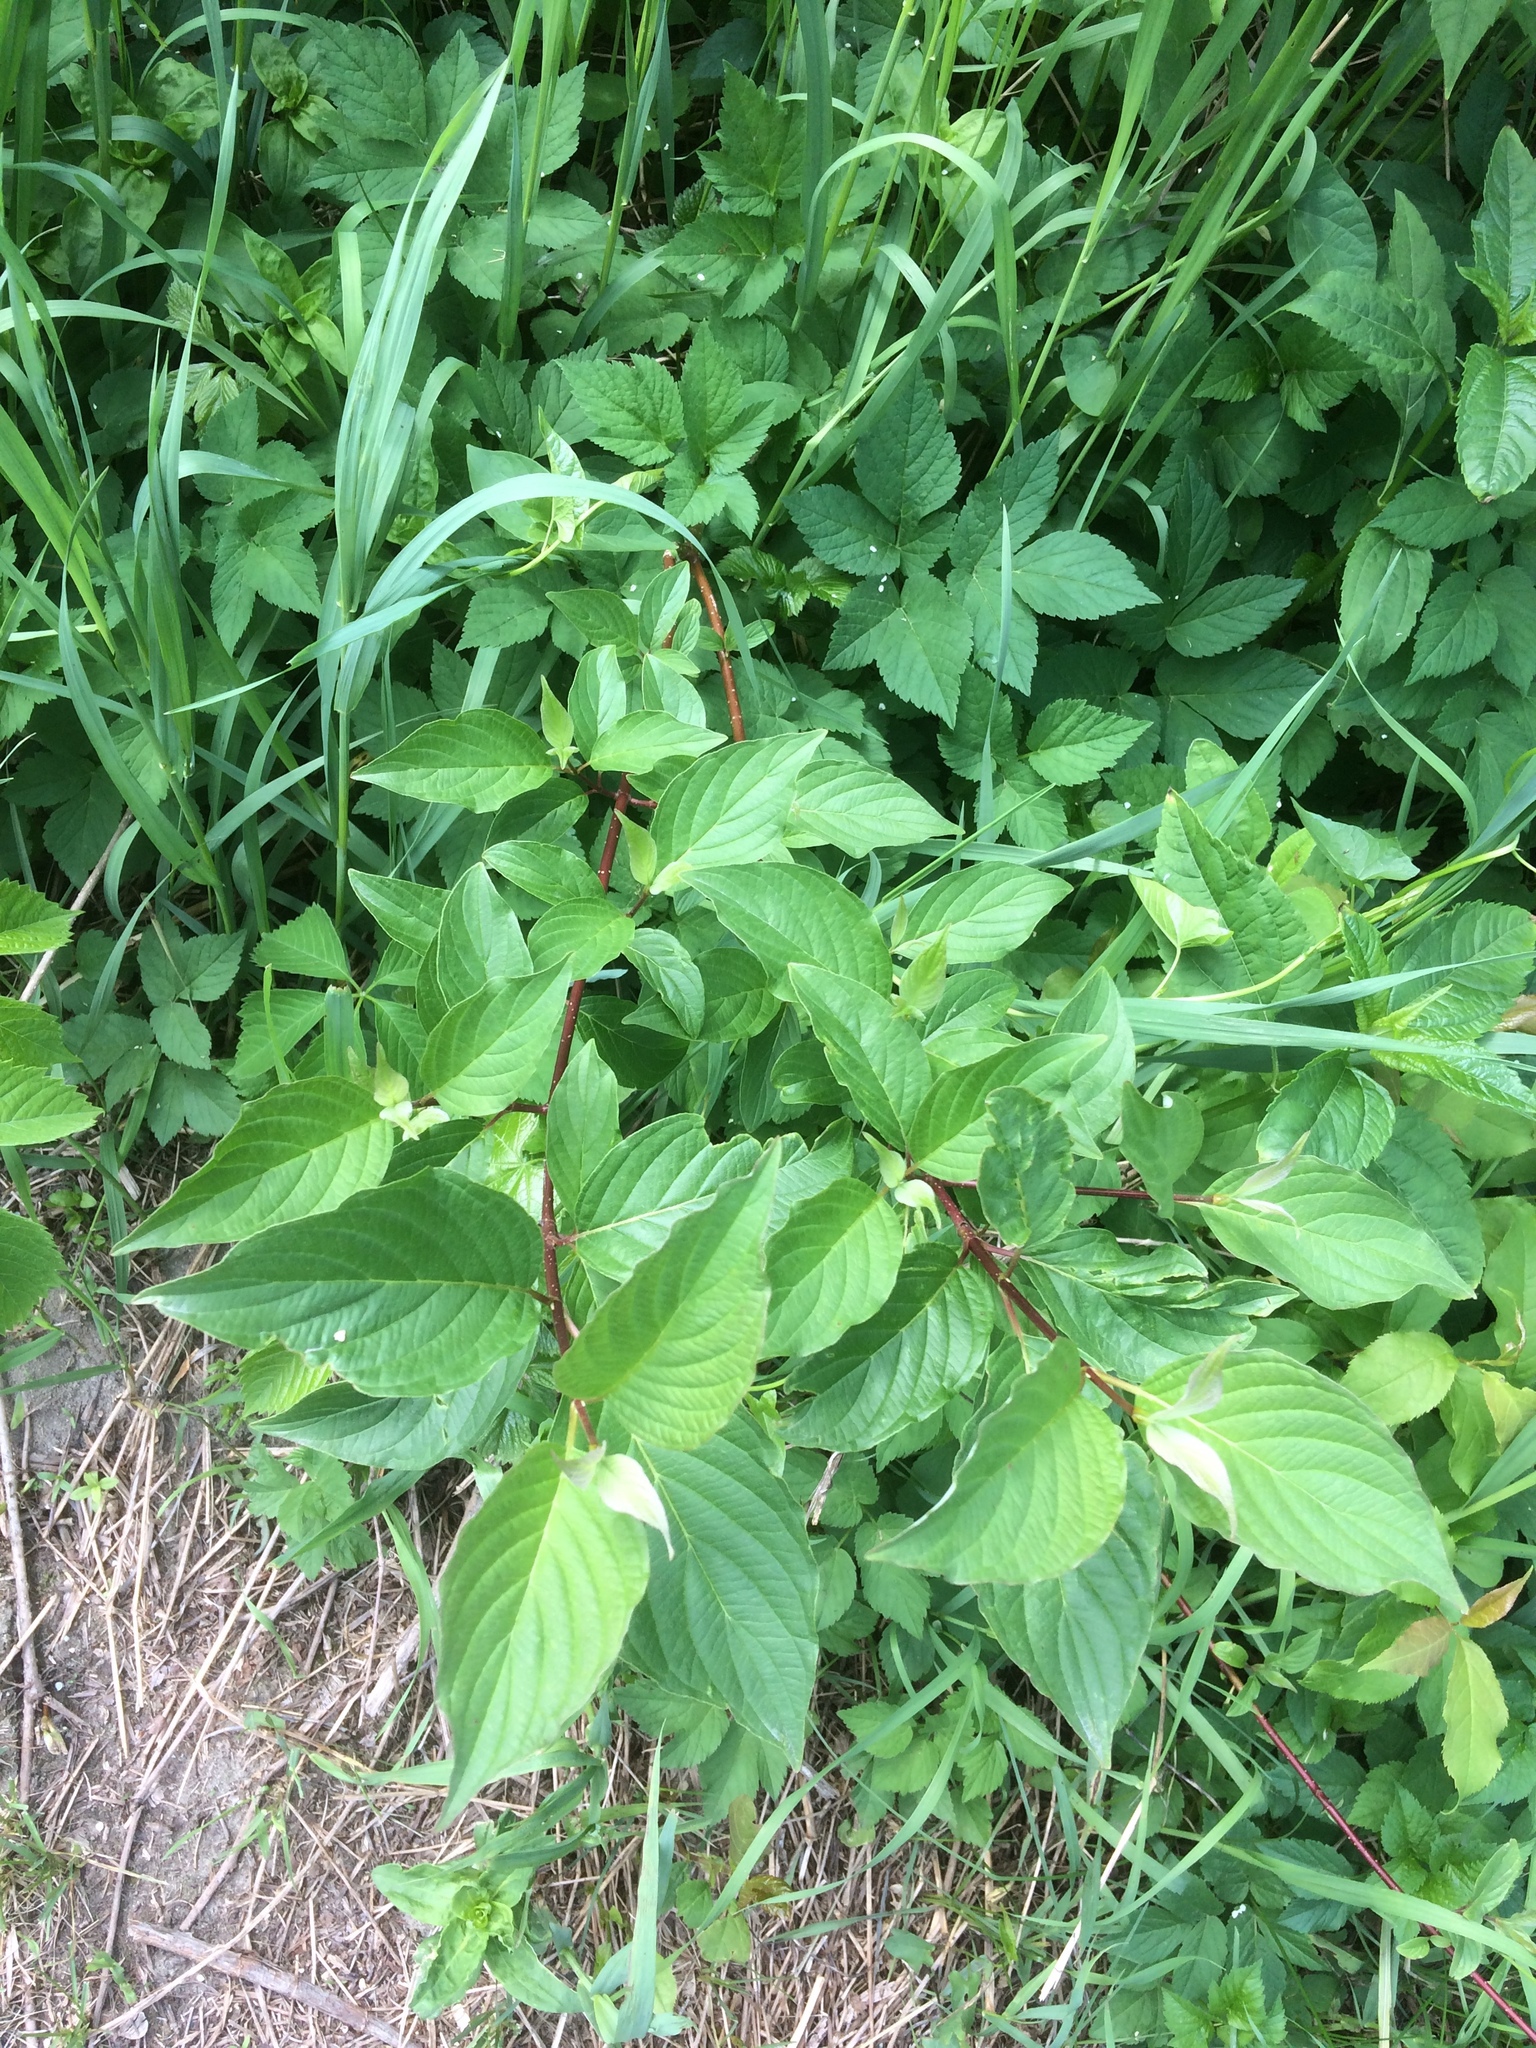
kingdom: Plantae
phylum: Tracheophyta
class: Magnoliopsida
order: Cornales
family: Cornaceae
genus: Cornus
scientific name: Cornus sericea
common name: Red-osier dogwood
